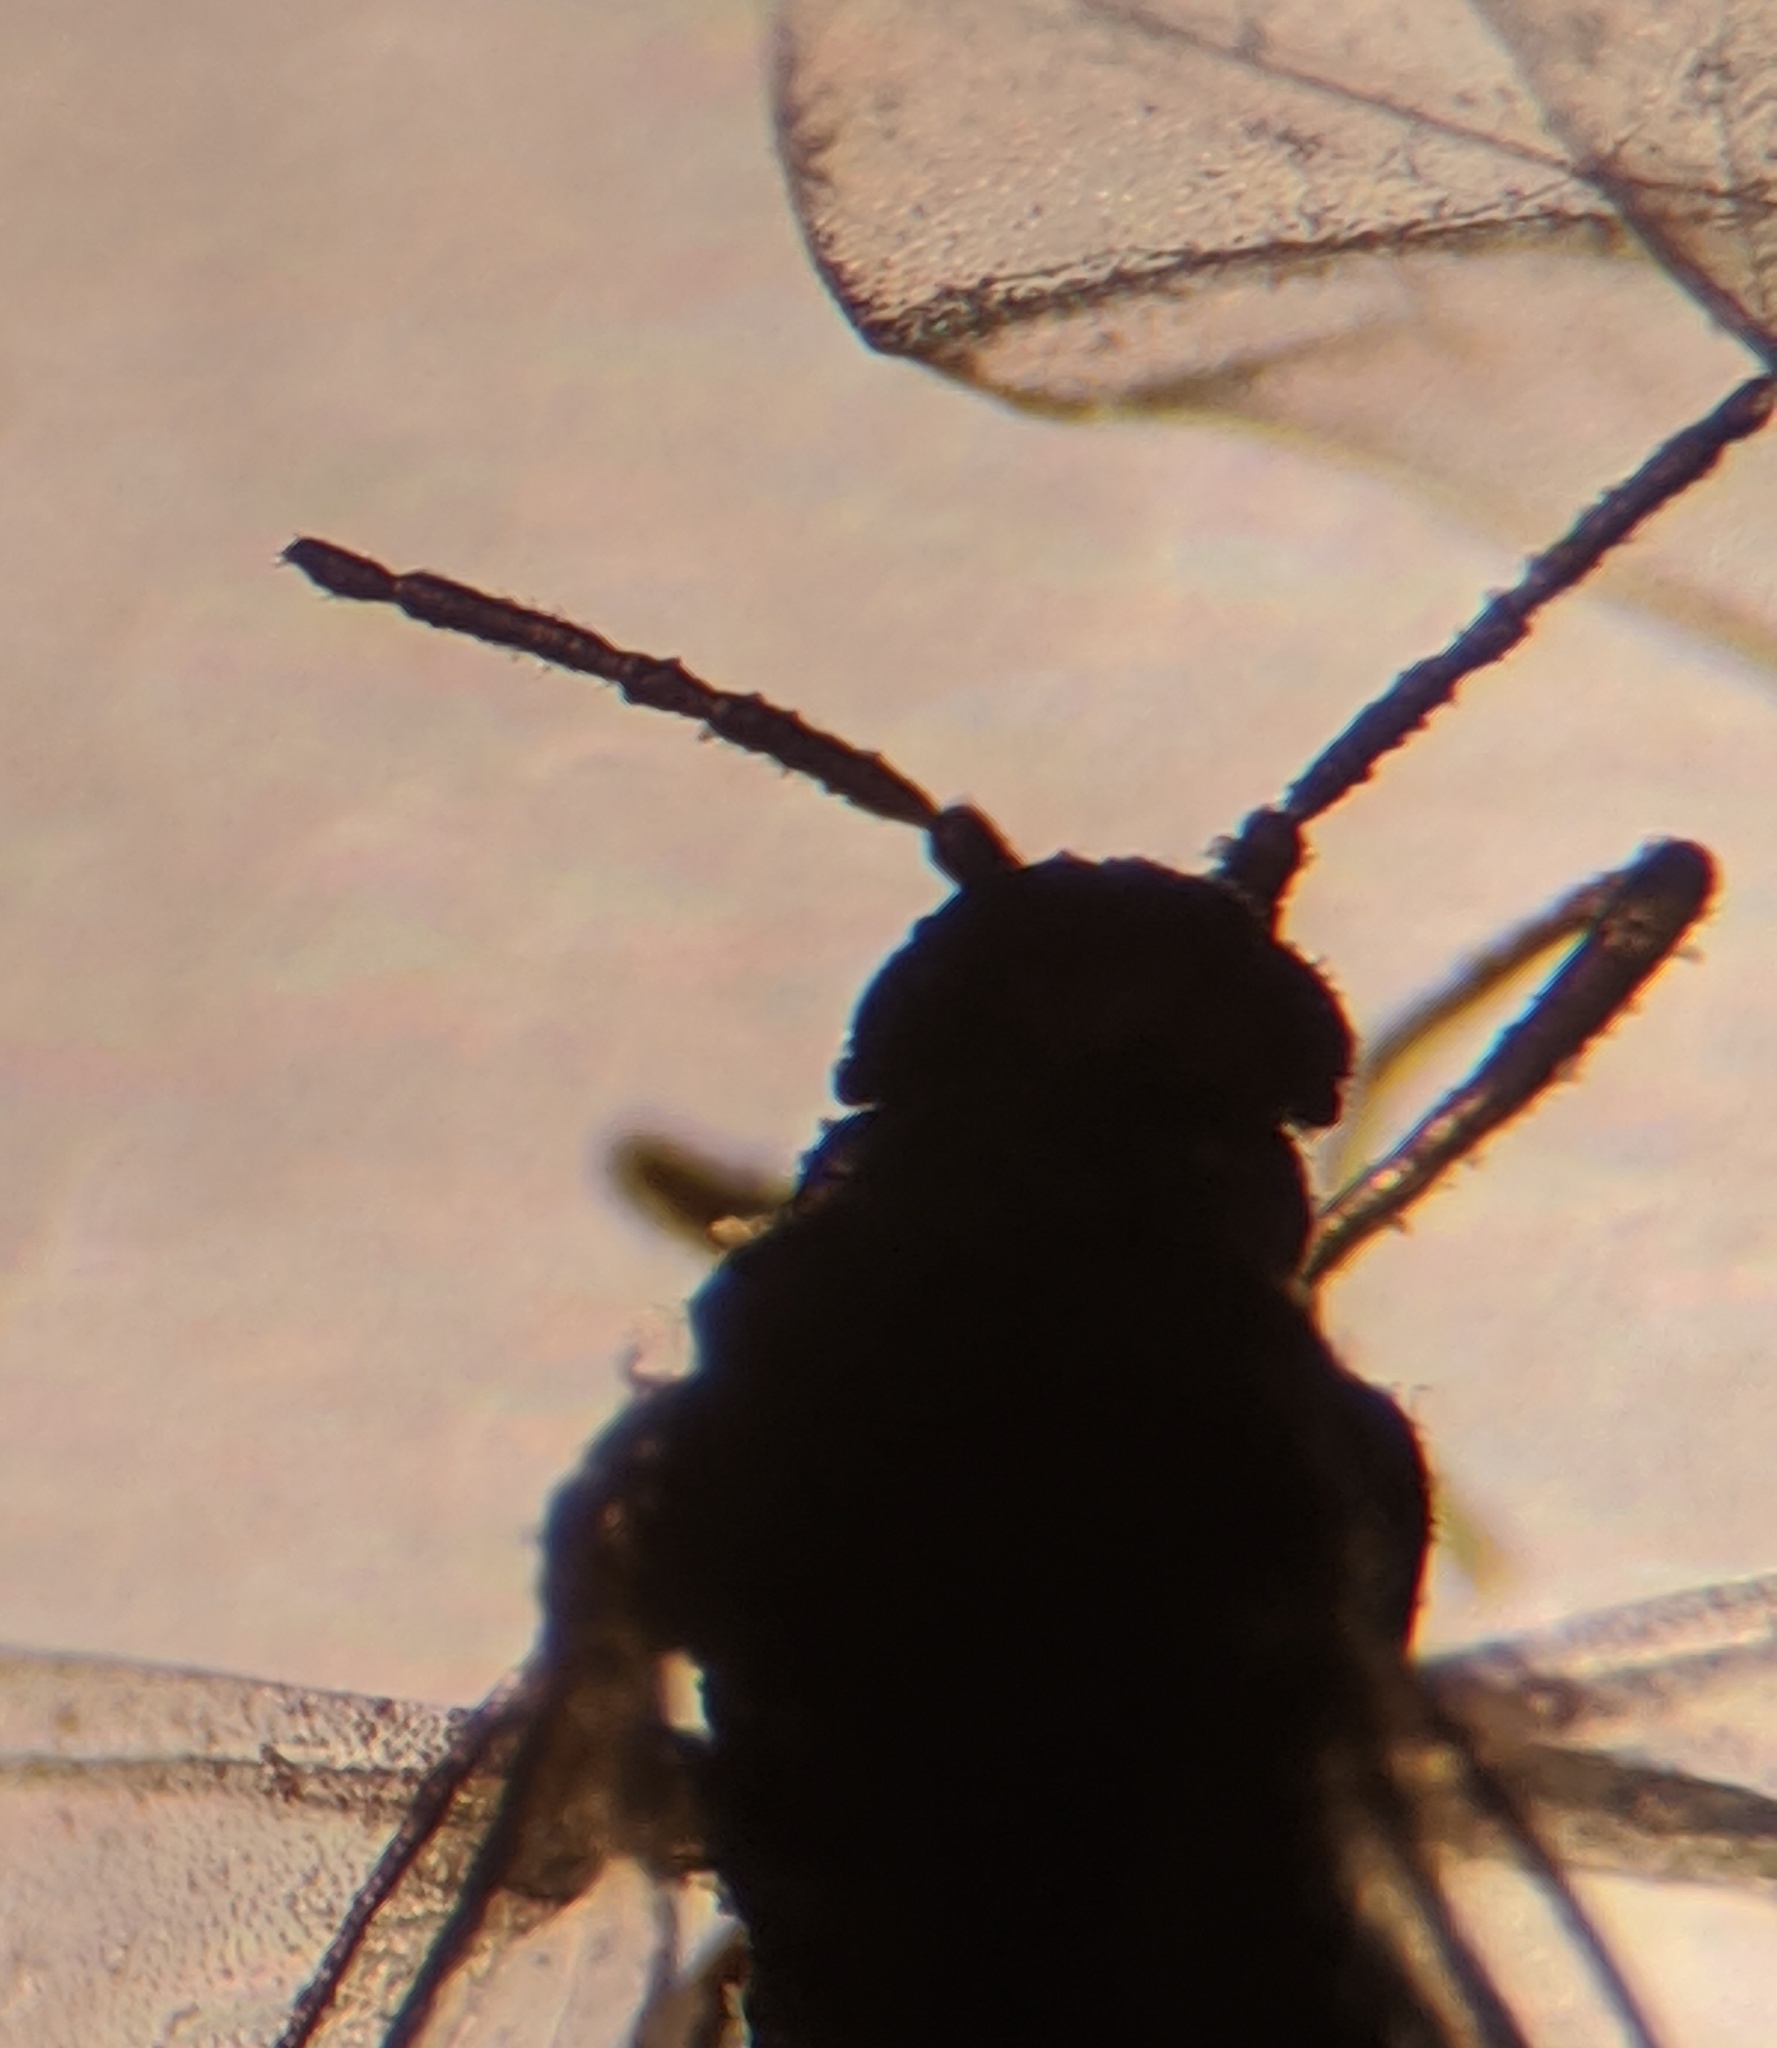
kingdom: Animalia
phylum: Arthropoda
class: Insecta
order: Hemiptera
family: Aphididae
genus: Tetraneura
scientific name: Tetraneura nigriabdominalis
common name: Aphid
